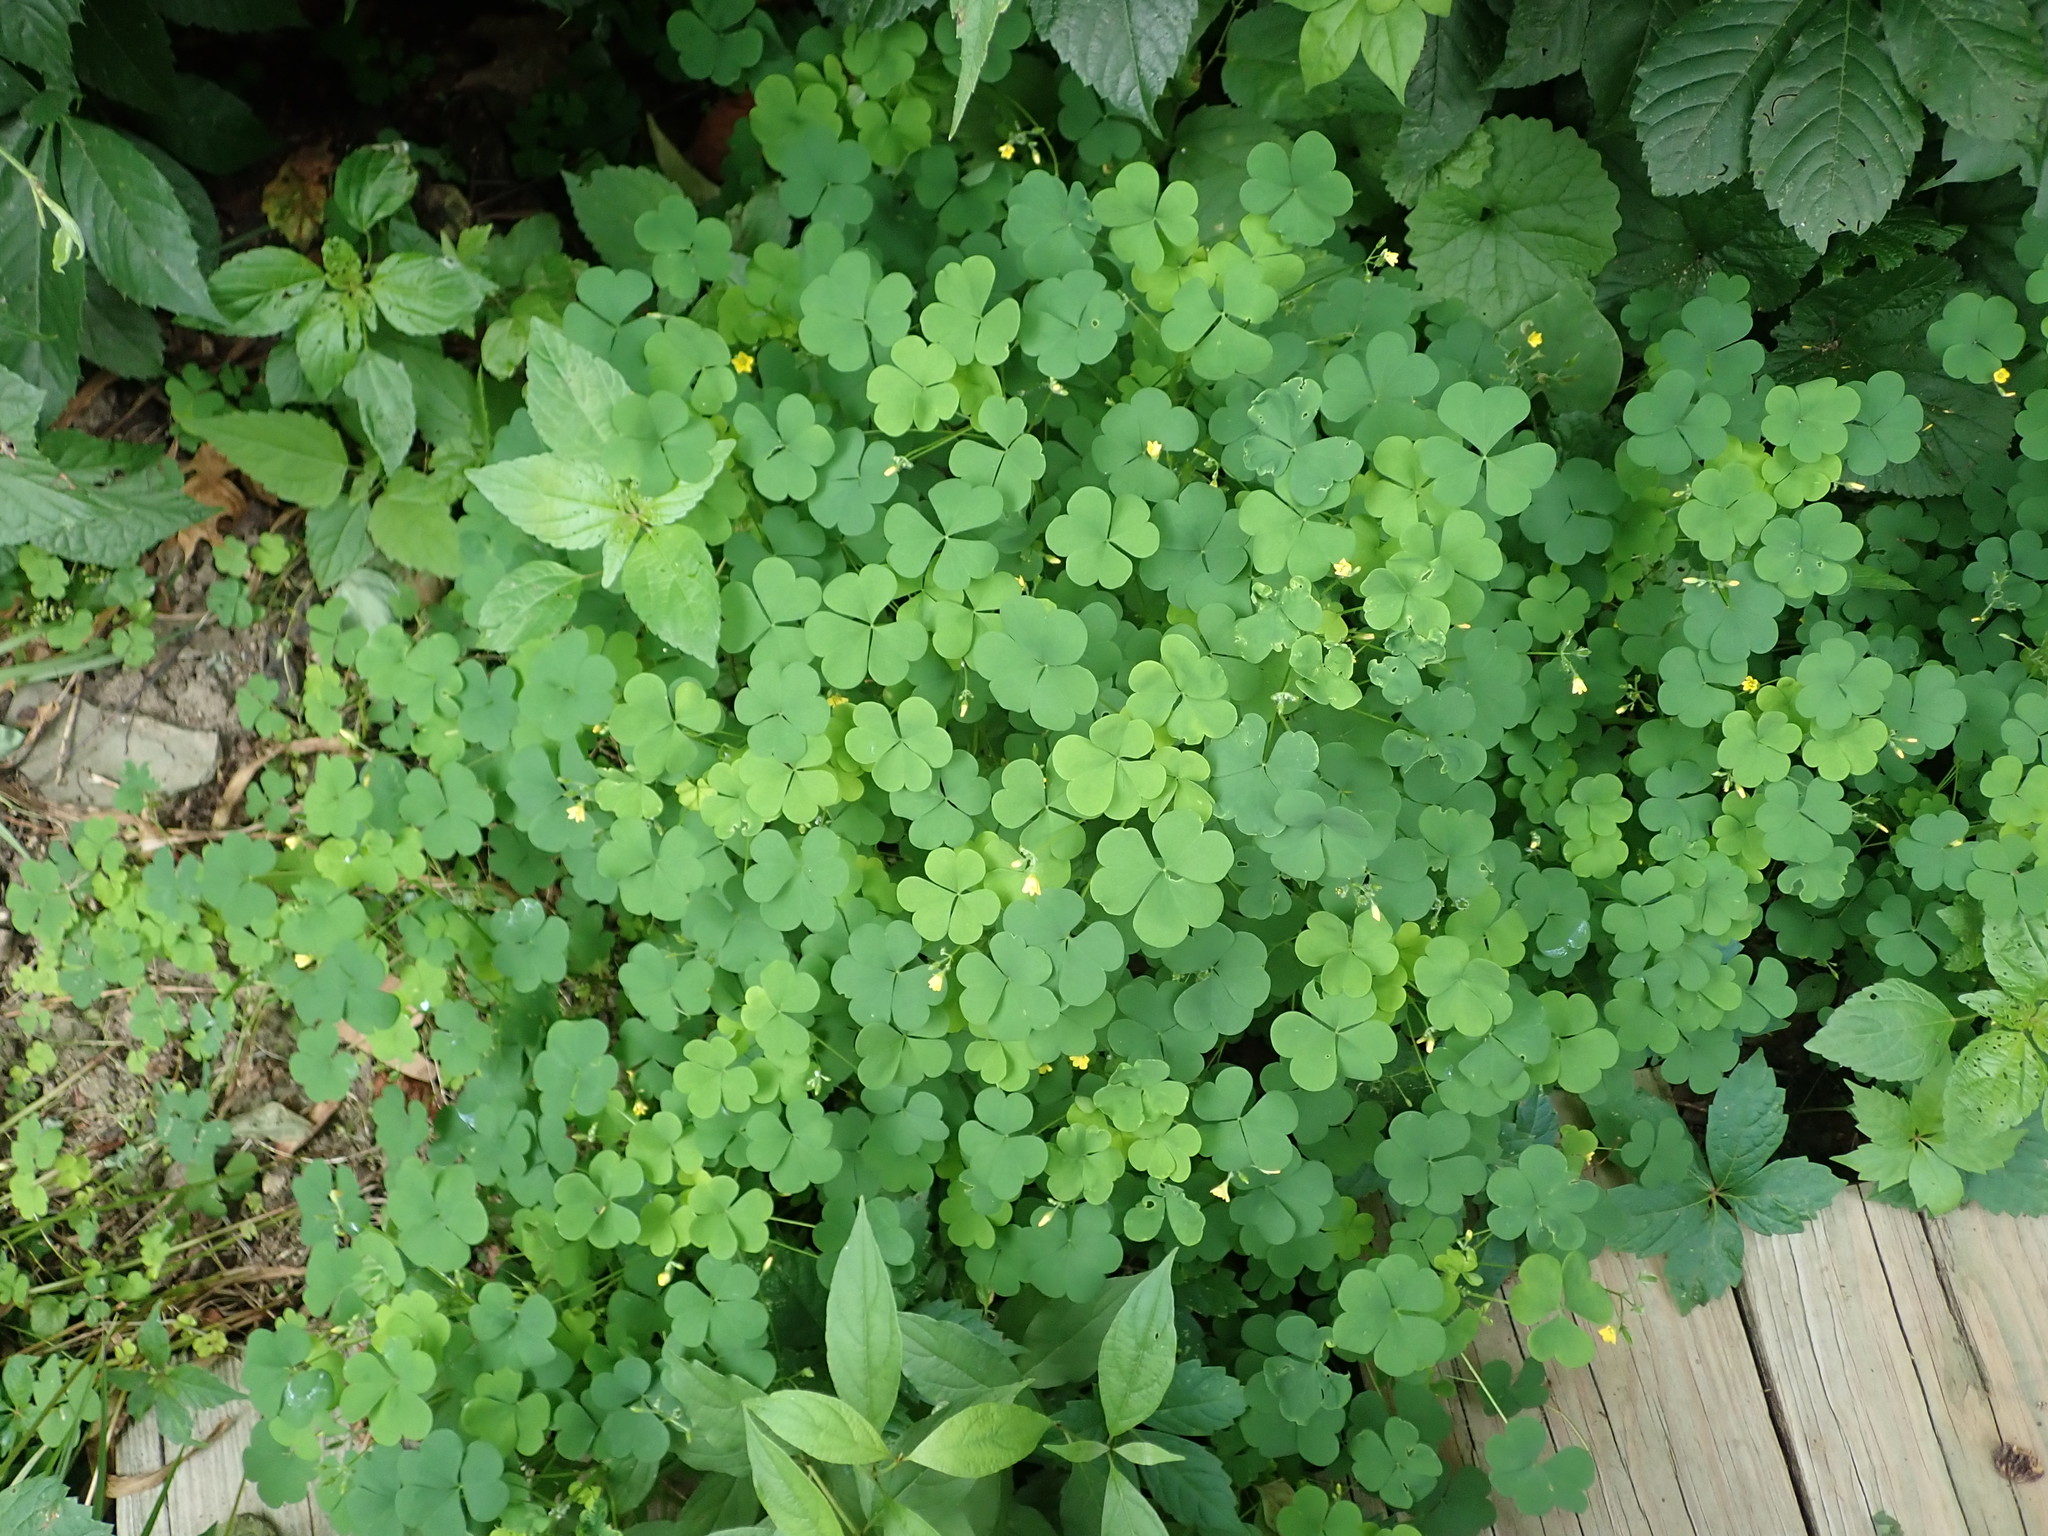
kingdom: Plantae
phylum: Tracheophyta
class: Magnoliopsida
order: Oxalidales
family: Oxalidaceae
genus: Oxalis
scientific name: Oxalis dillenii
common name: Sussex yellow-sorrel
